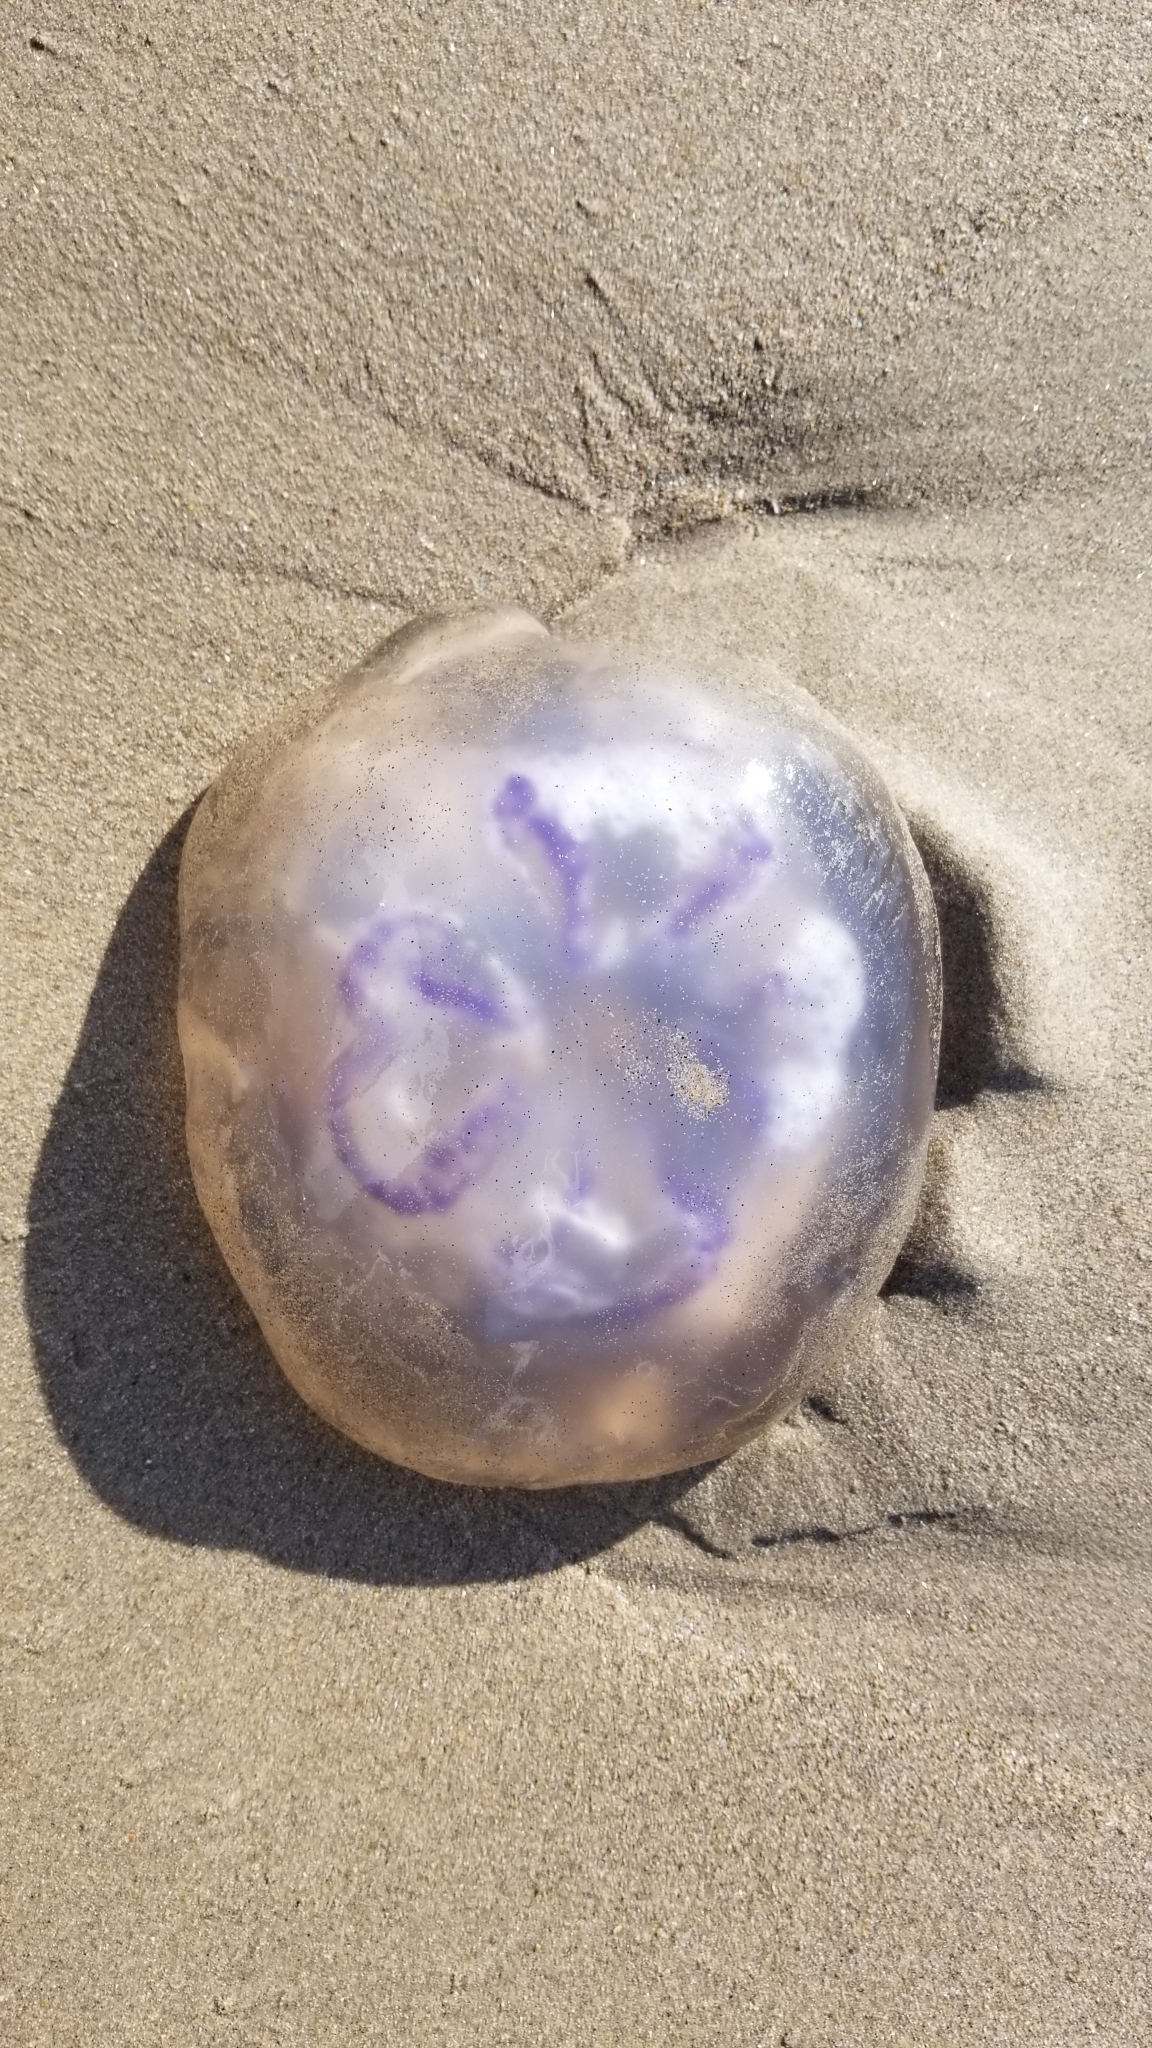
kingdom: Animalia
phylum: Cnidaria
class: Scyphozoa
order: Semaeostomeae
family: Ulmaridae
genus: Aurelia
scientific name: Aurelia labiata
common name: Pacific moon jelly
